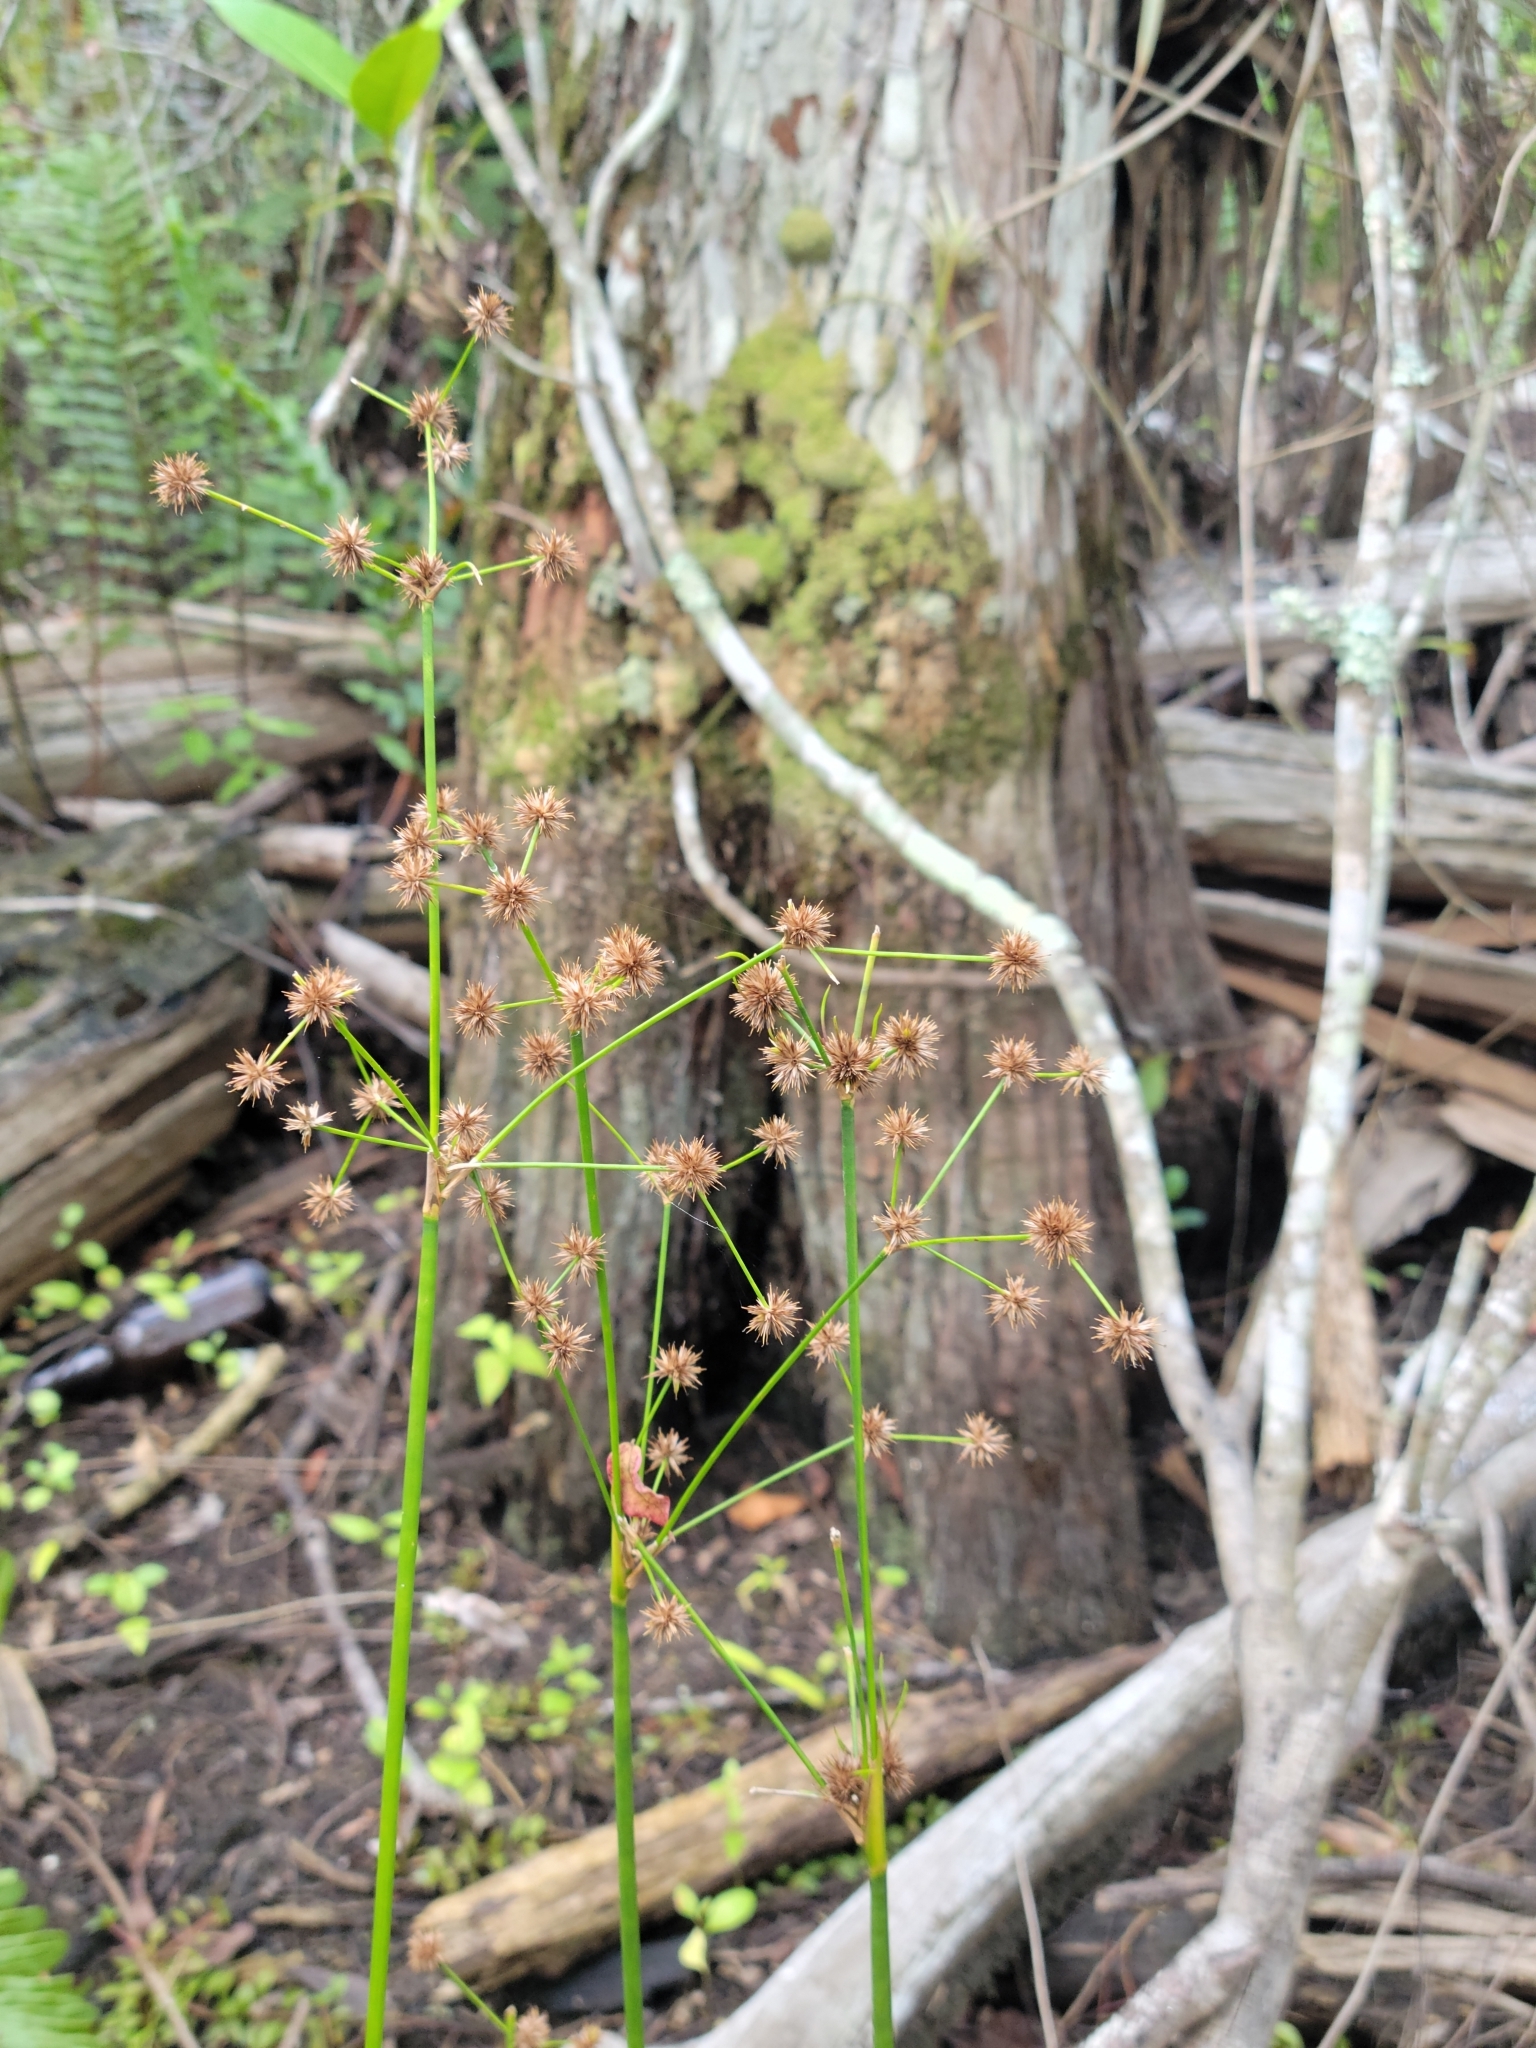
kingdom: Plantae
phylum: Tracheophyta
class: Liliopsida
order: Poales
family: Juncaceae
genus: Juncus
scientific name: Juncus paludosus
